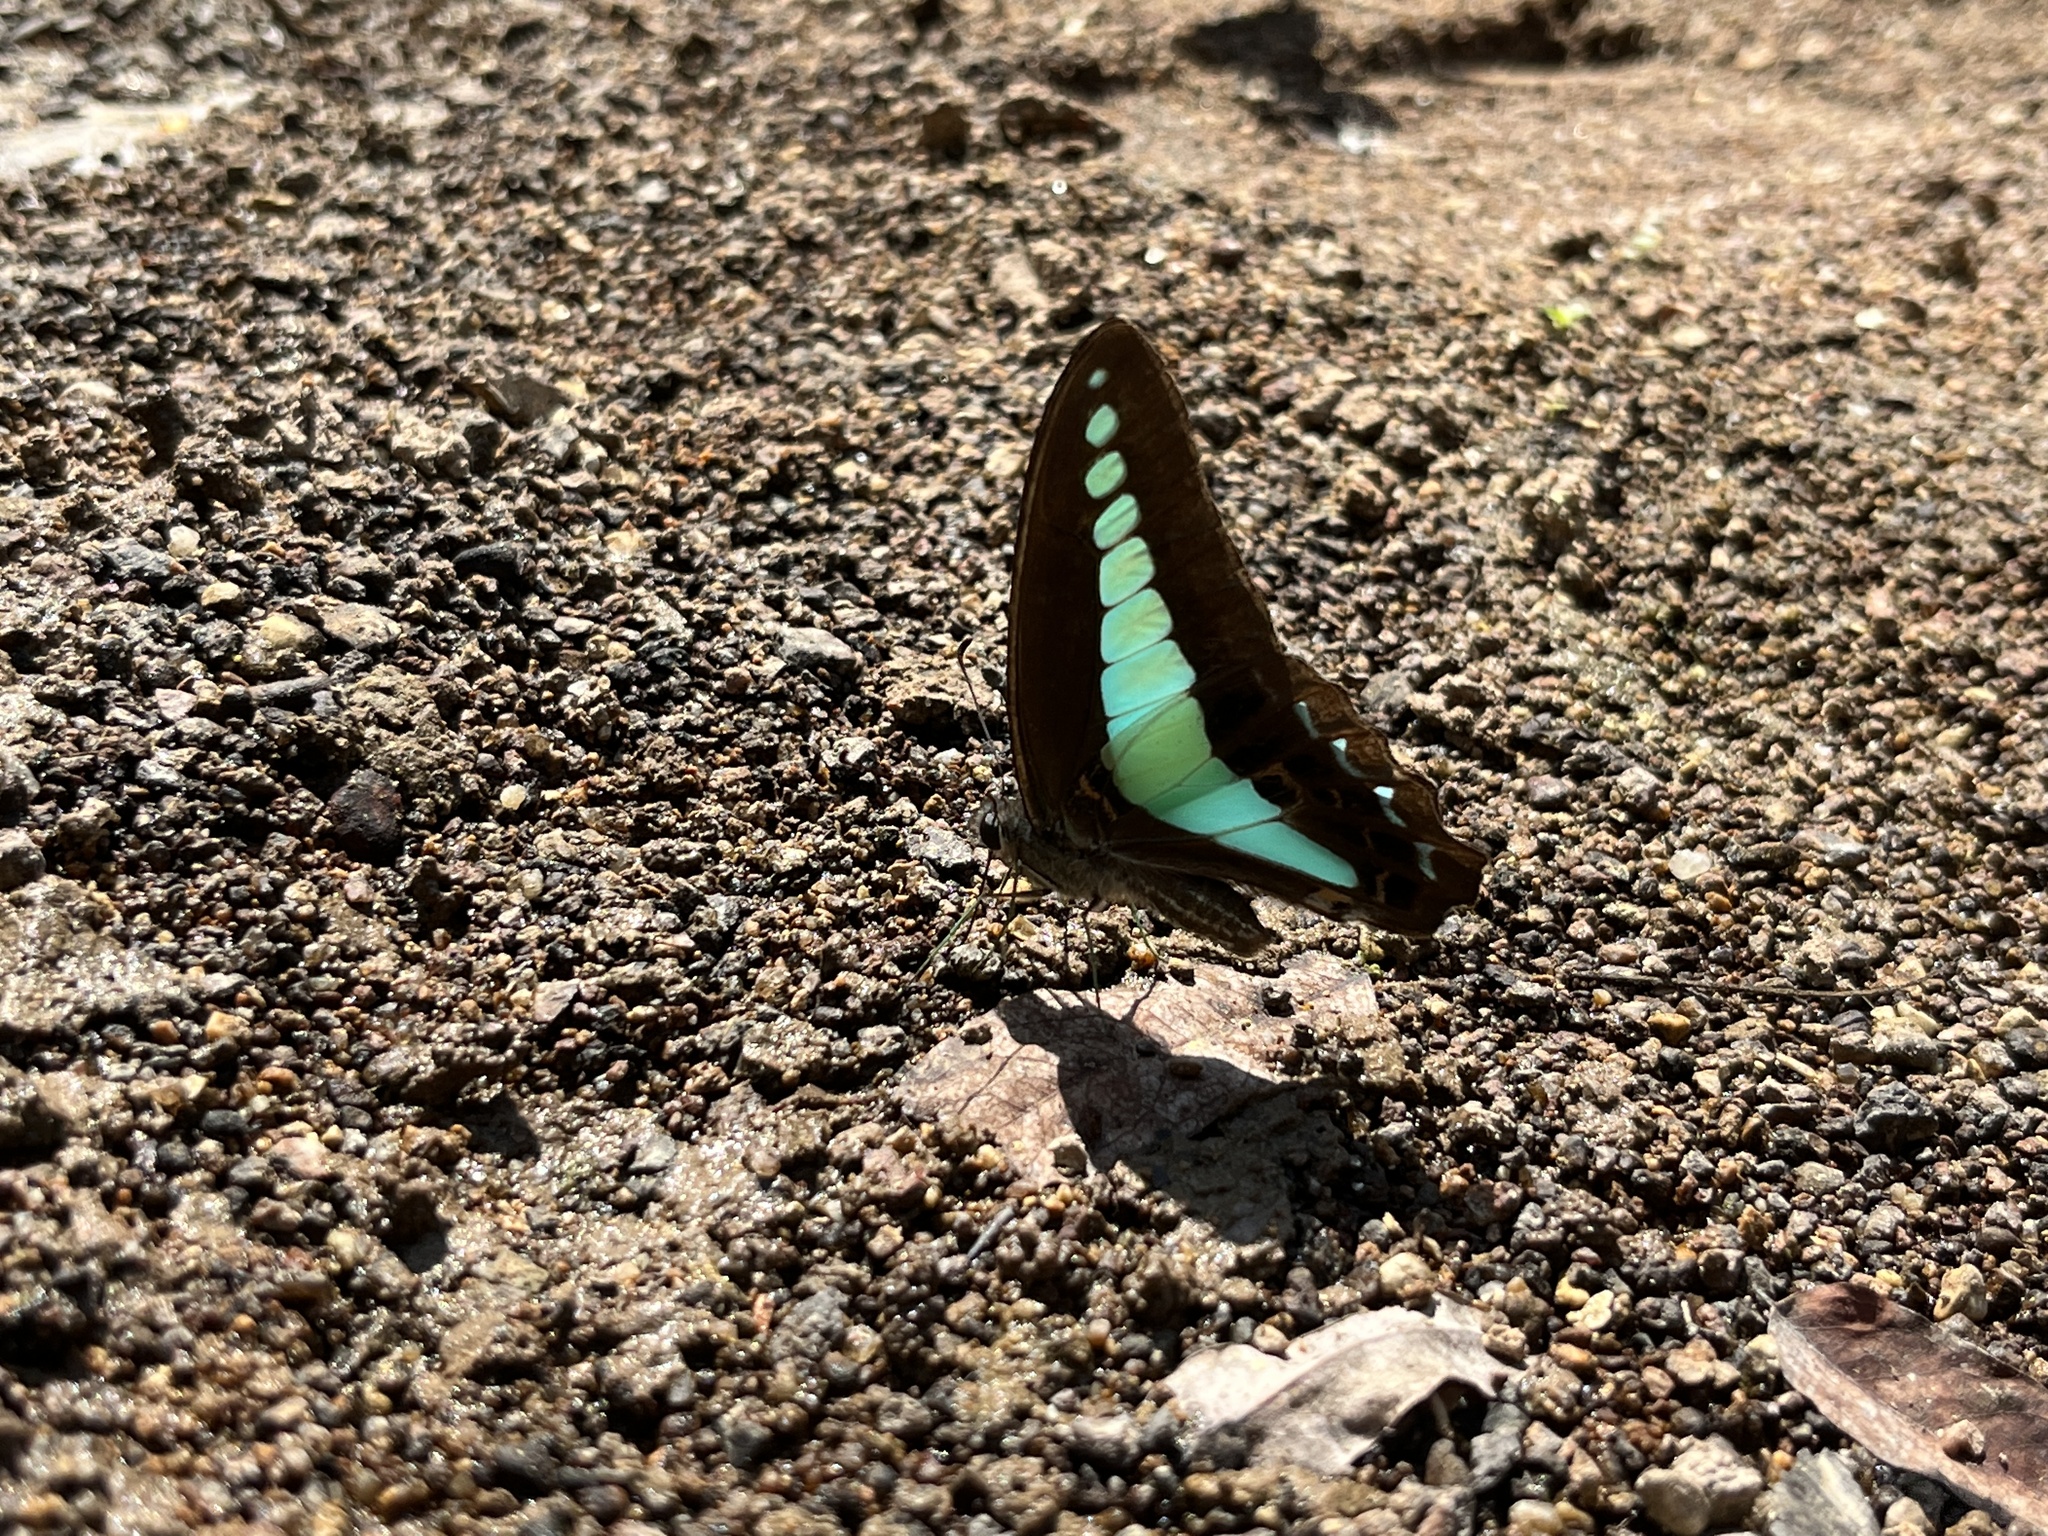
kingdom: Fungi
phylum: Ascomycota
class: Sordariomycetes
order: Microascales
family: Microascaceae
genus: Graphium
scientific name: Graphium sarpedon
